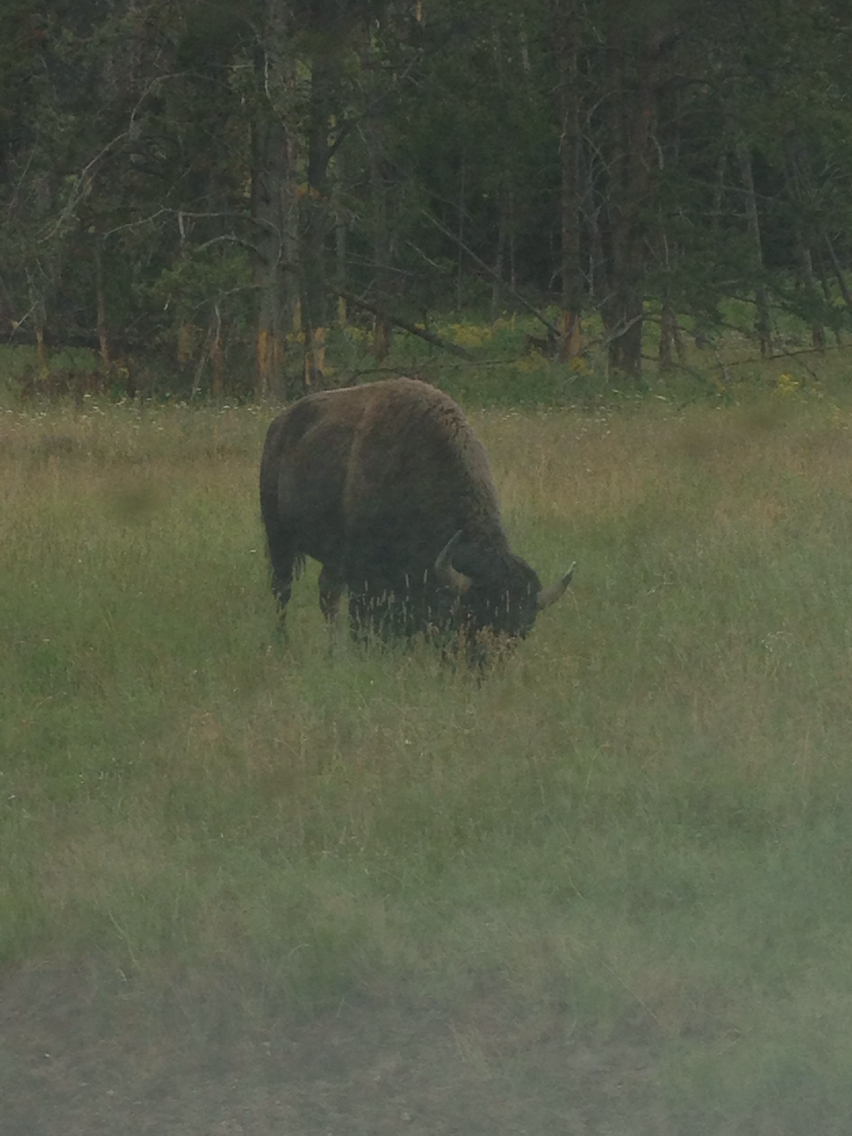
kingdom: Animalia
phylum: Chordata
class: Mammalia
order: Artiodactyla
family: Bovidae
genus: Bison
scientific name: Bison bison
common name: American bison
